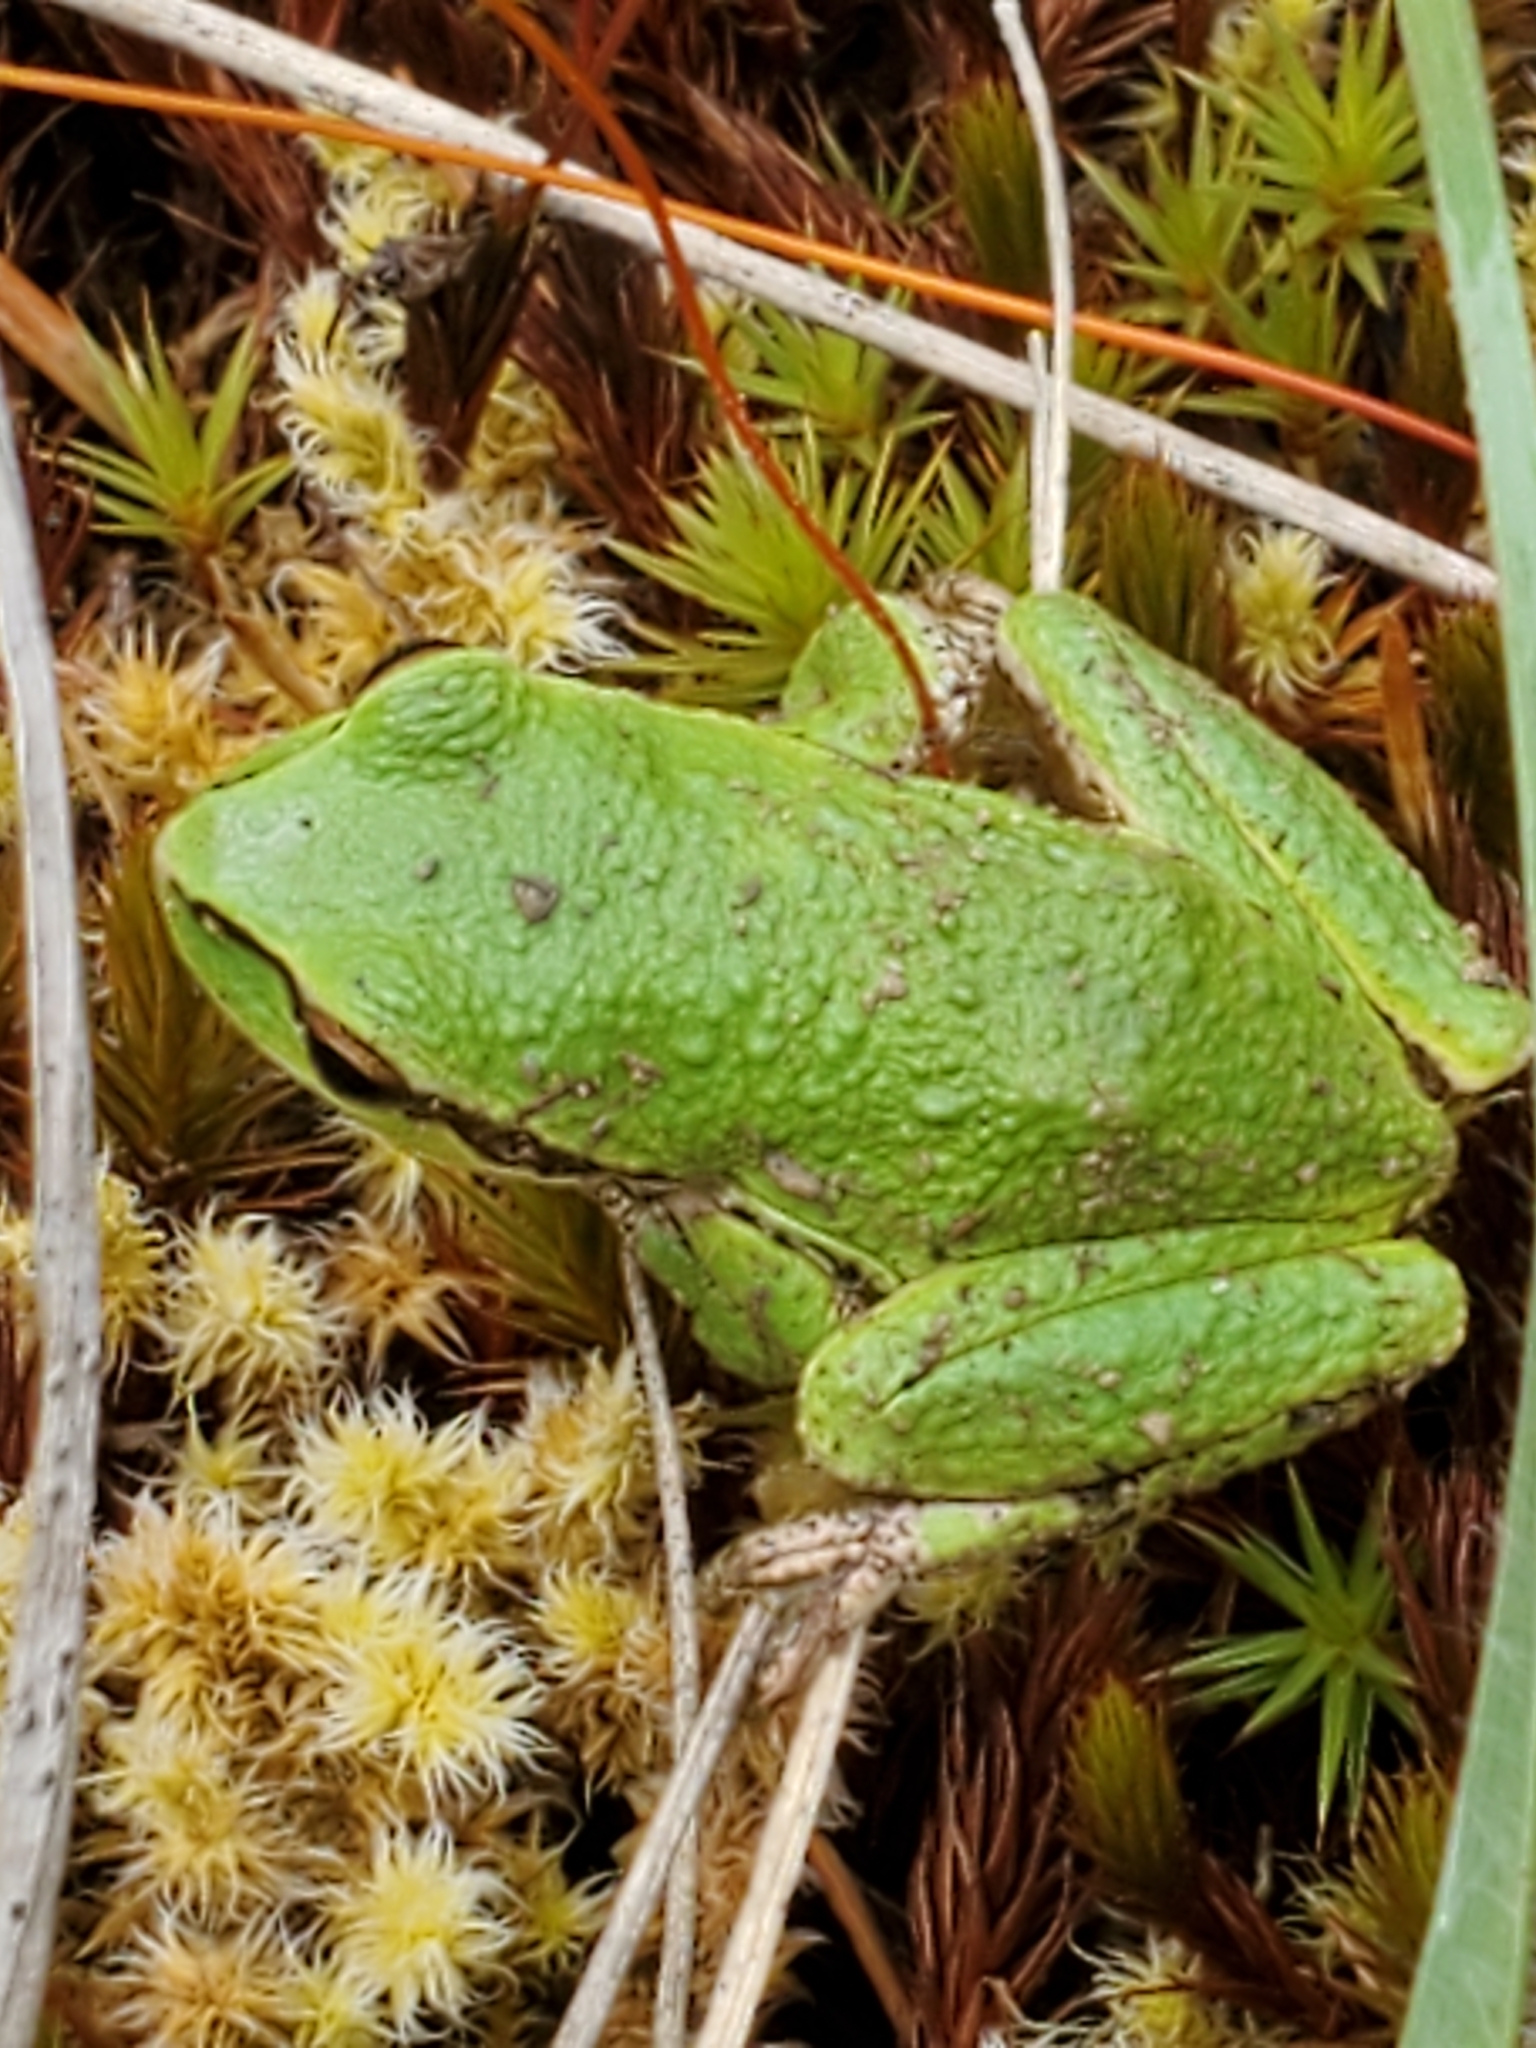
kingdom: Animalia
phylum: Chordata
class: Amphibia
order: Anura
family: Hylidae
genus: Pseudacris
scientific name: Pseudacris regilla
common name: Pacific chorus frog
